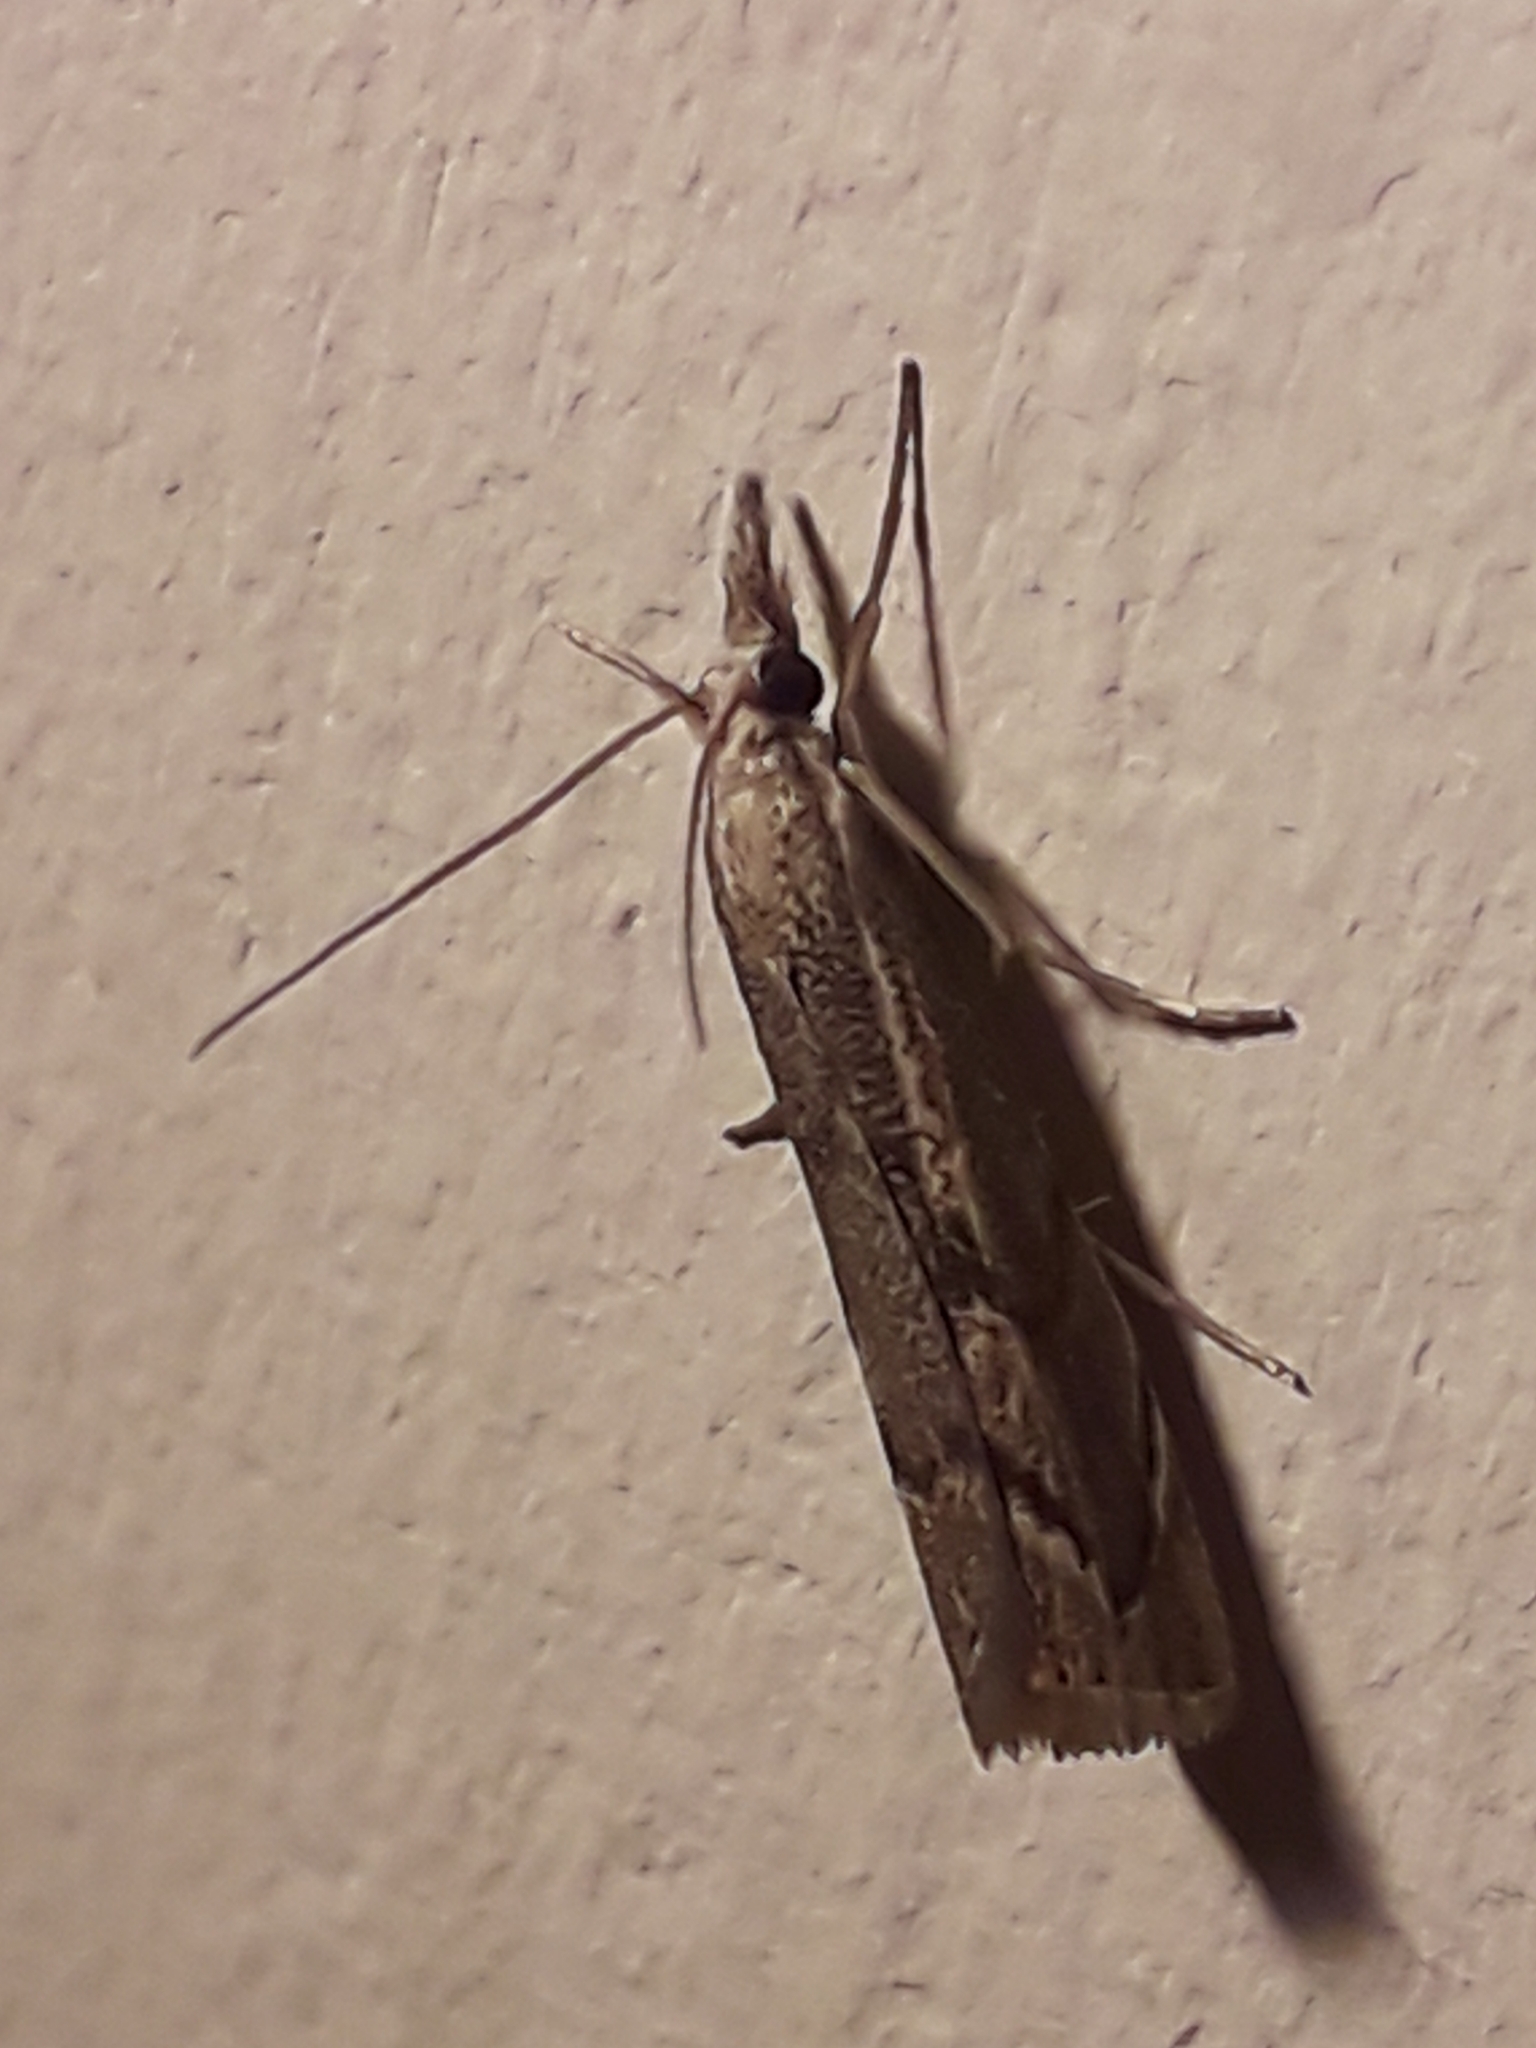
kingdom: Animalia
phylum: Arthropoda
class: Insecta
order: Lepidoptera
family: Crambidae
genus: Agriphila
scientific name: Agriphila geniculea
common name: Elbow-stripe grass-veneer
